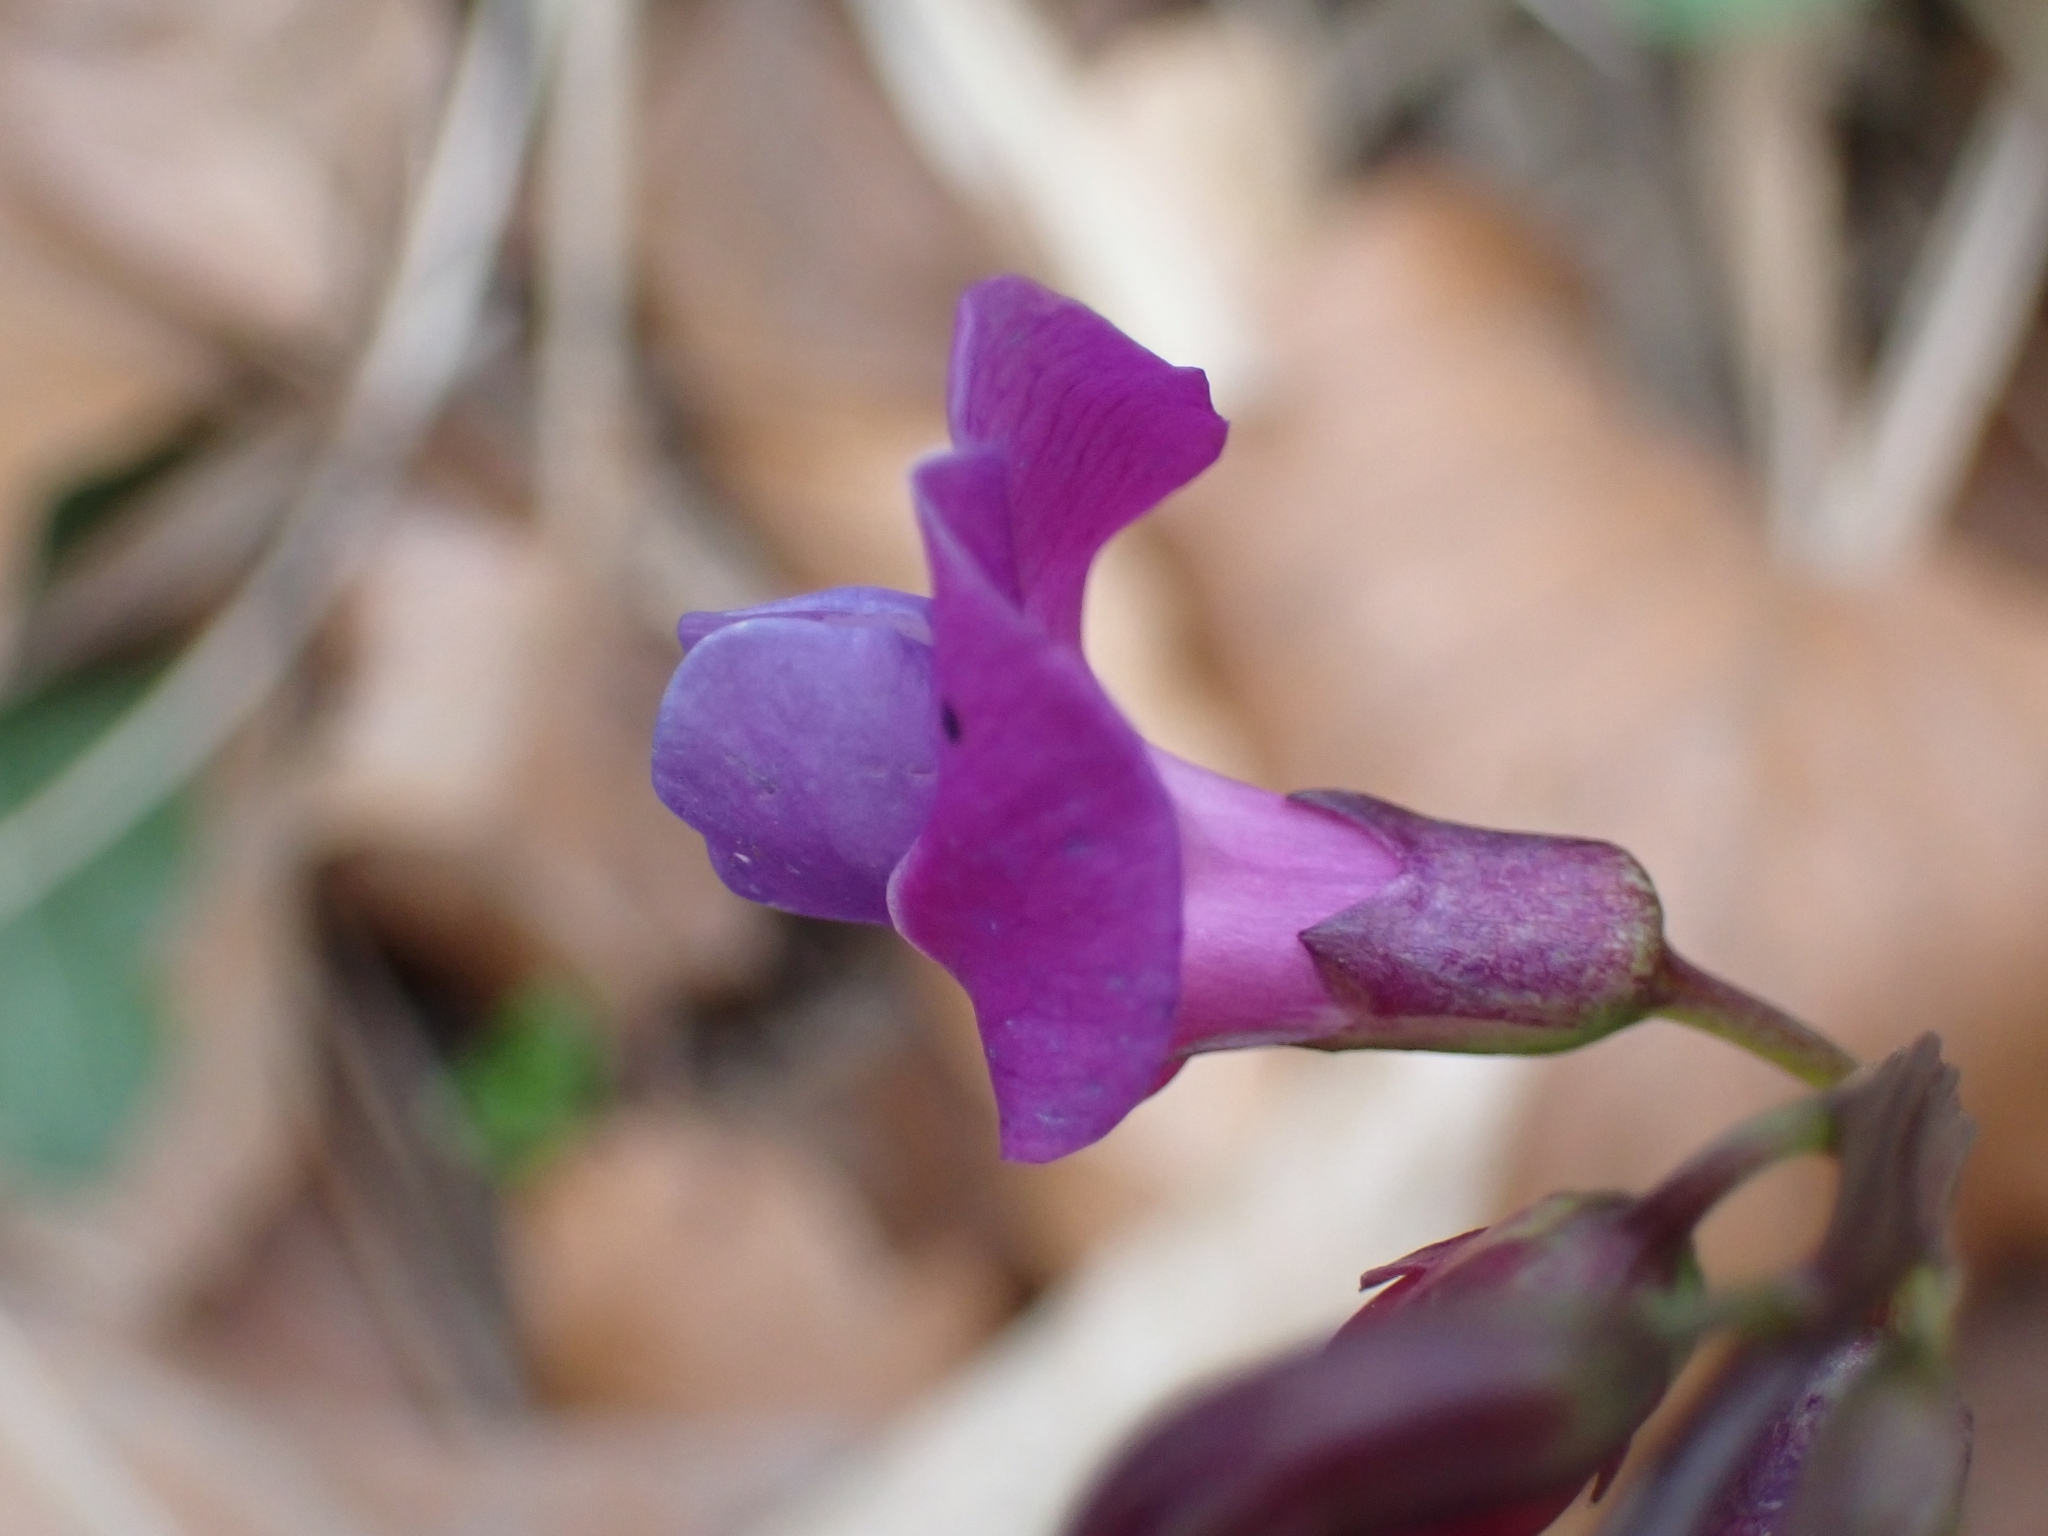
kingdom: Plantae
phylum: Tracheophyta
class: Magnoliopsida
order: Fabales
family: Fabaceae
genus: Lathyrus
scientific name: Lathyrus vernus
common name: Spring pea
